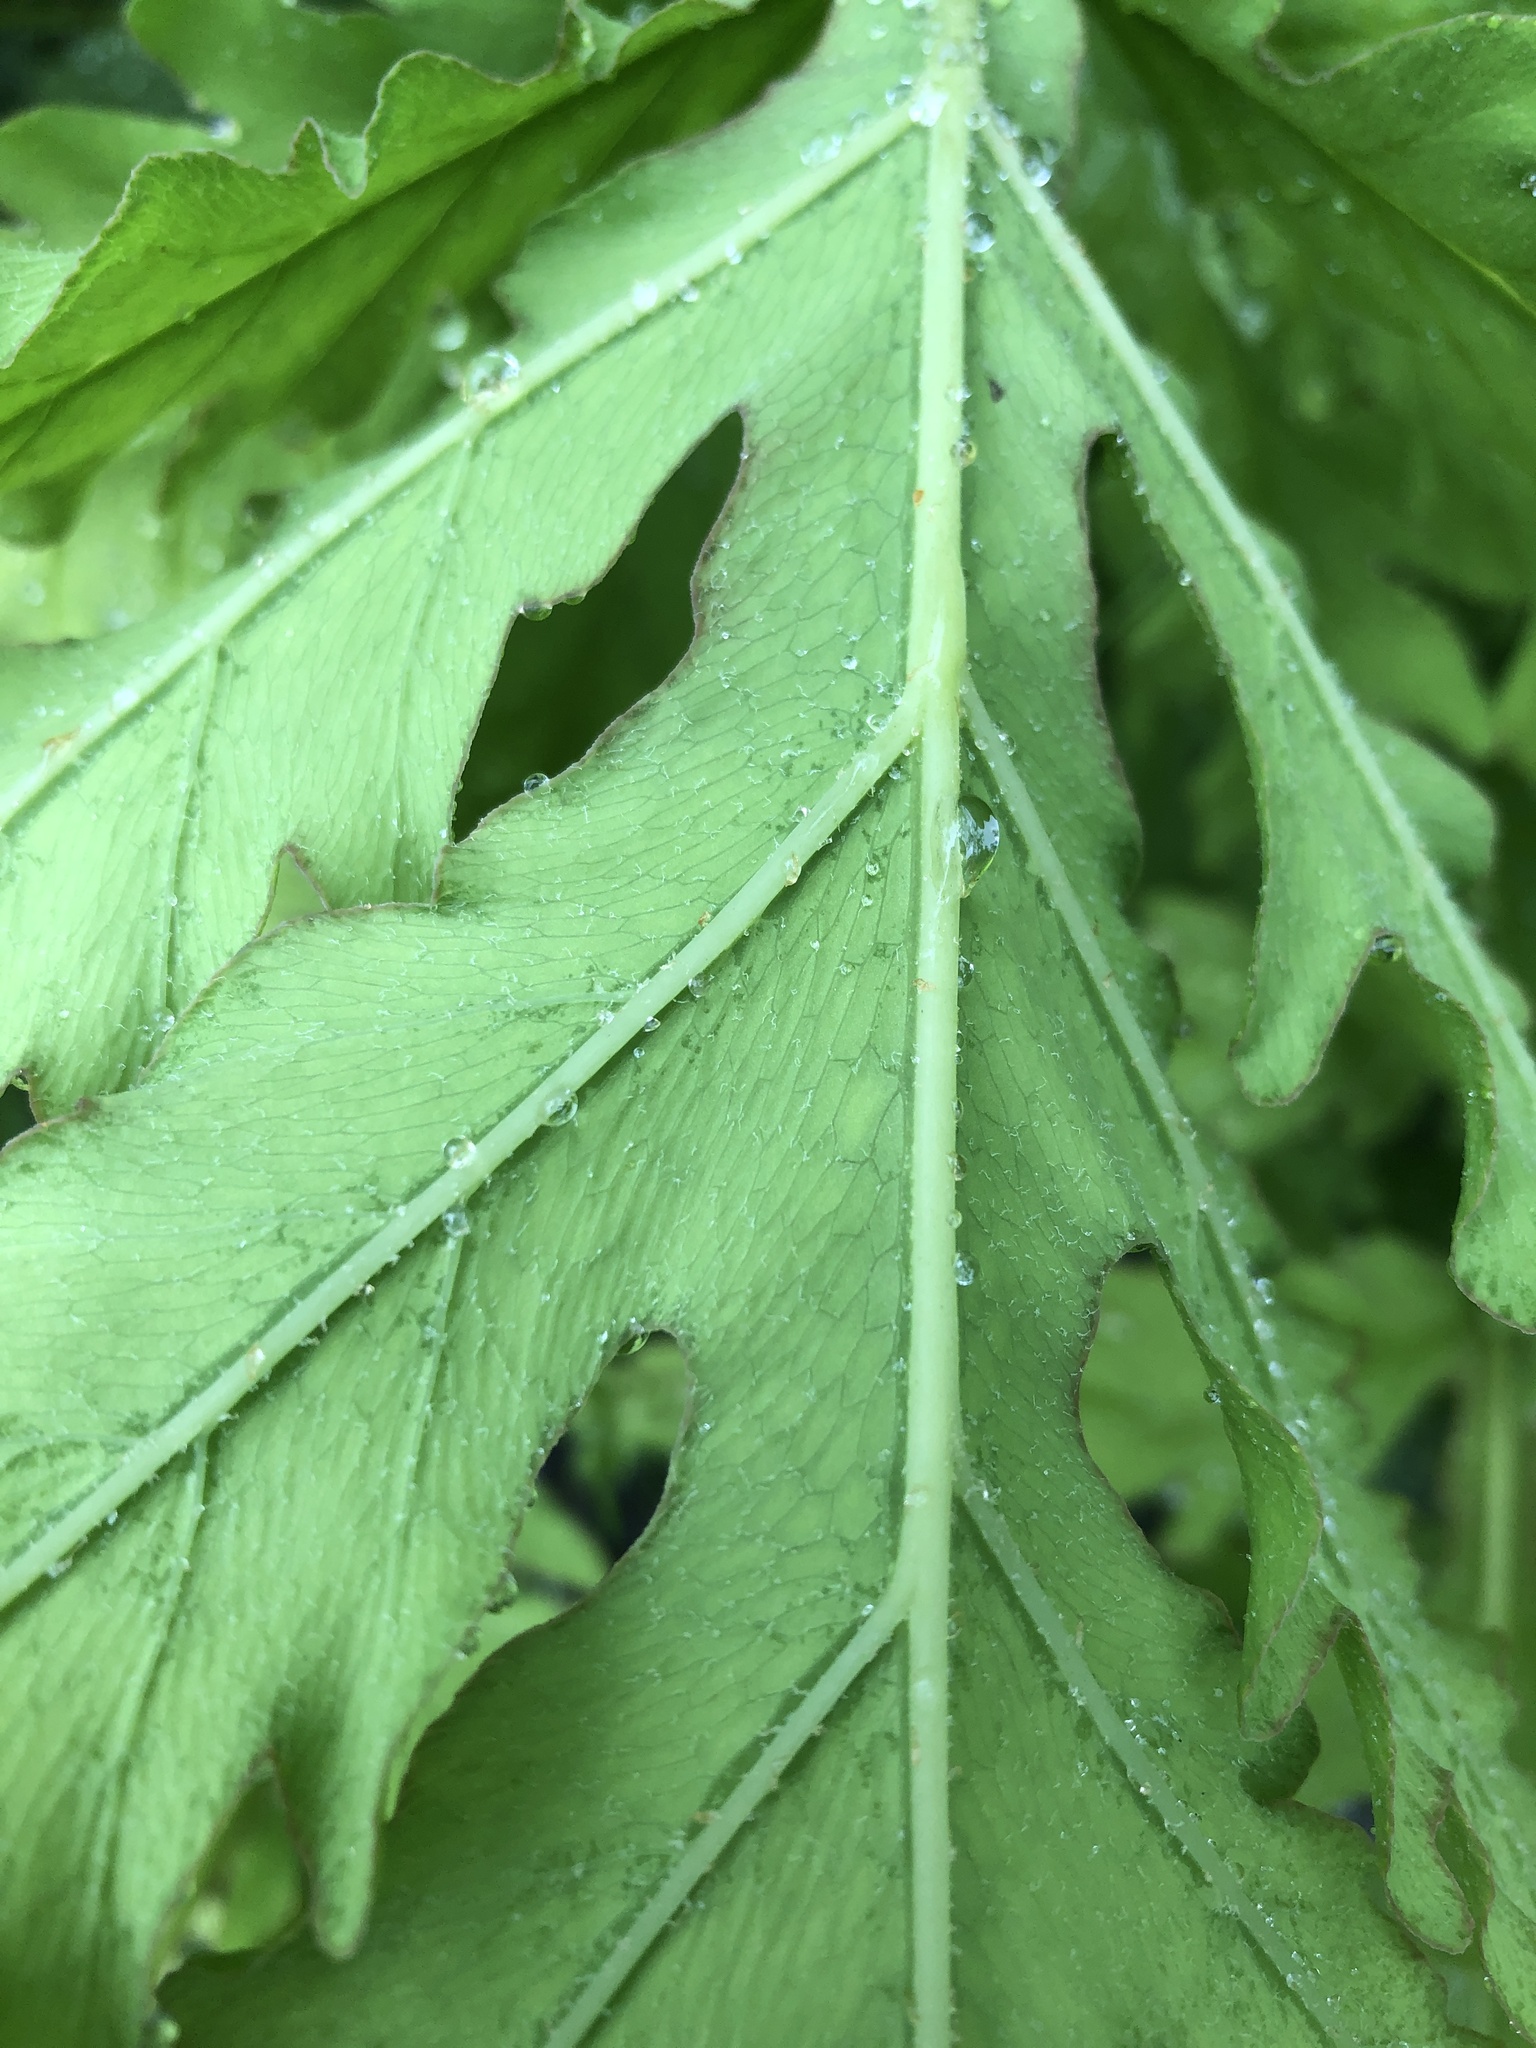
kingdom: Plantae
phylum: Tracheophyta
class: Polypodiopsida
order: Polypodiales
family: Onocleaceae
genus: Onoclea
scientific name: Onoclea sensibilis
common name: Sensitive fern
